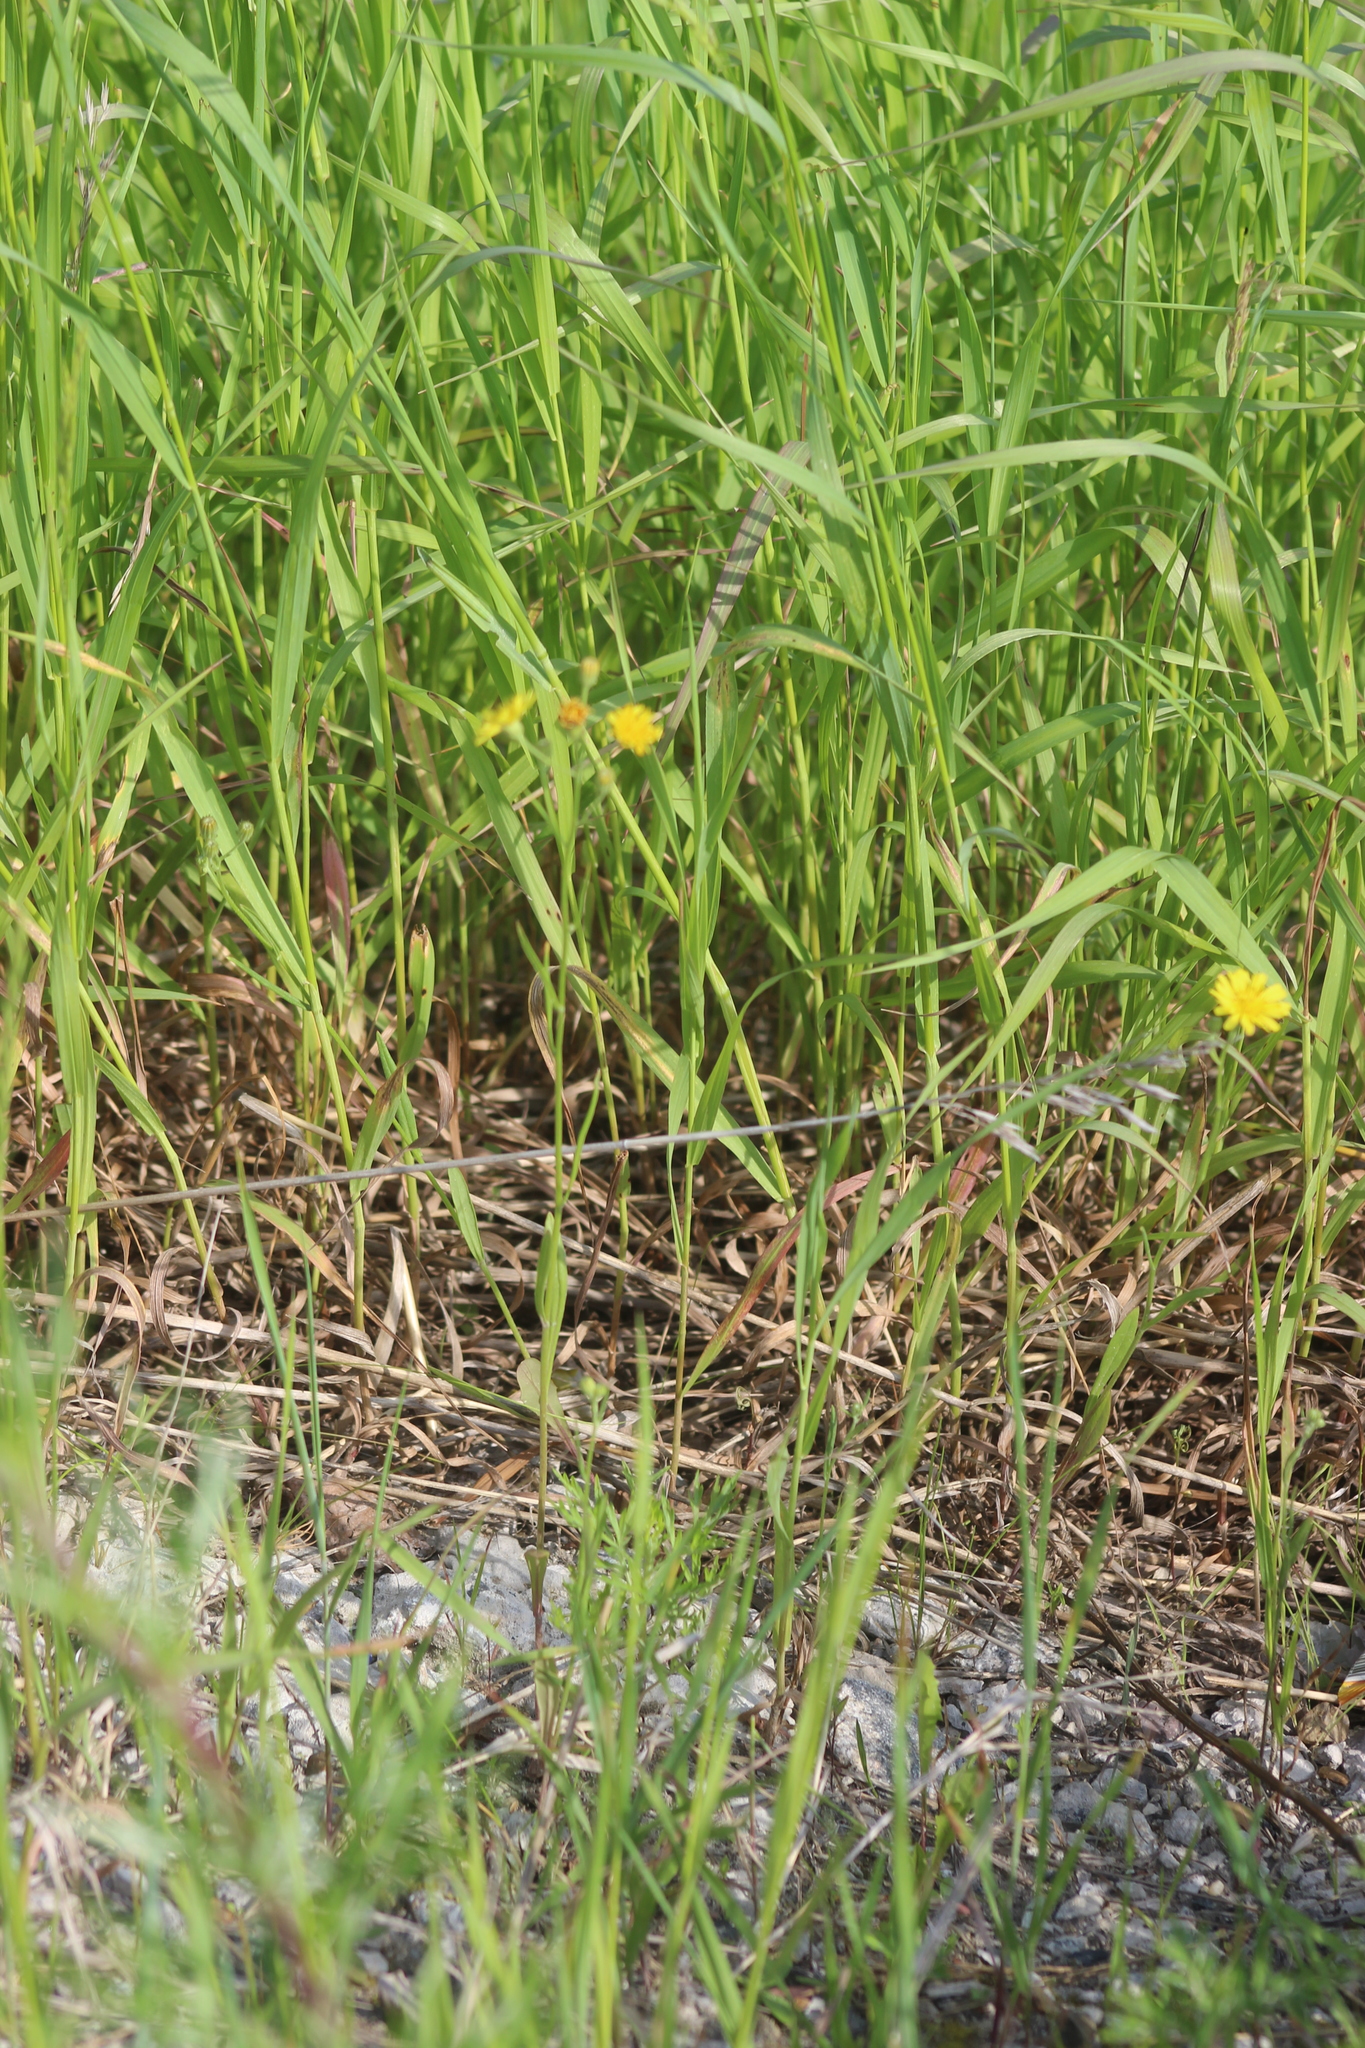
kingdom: Plantae
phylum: Tracheophyta
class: Magnoliopsida
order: Asterales
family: Asteraceae
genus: Crepis
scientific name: Crepis tectorum
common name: Narrow-leaved hawk's-beard
